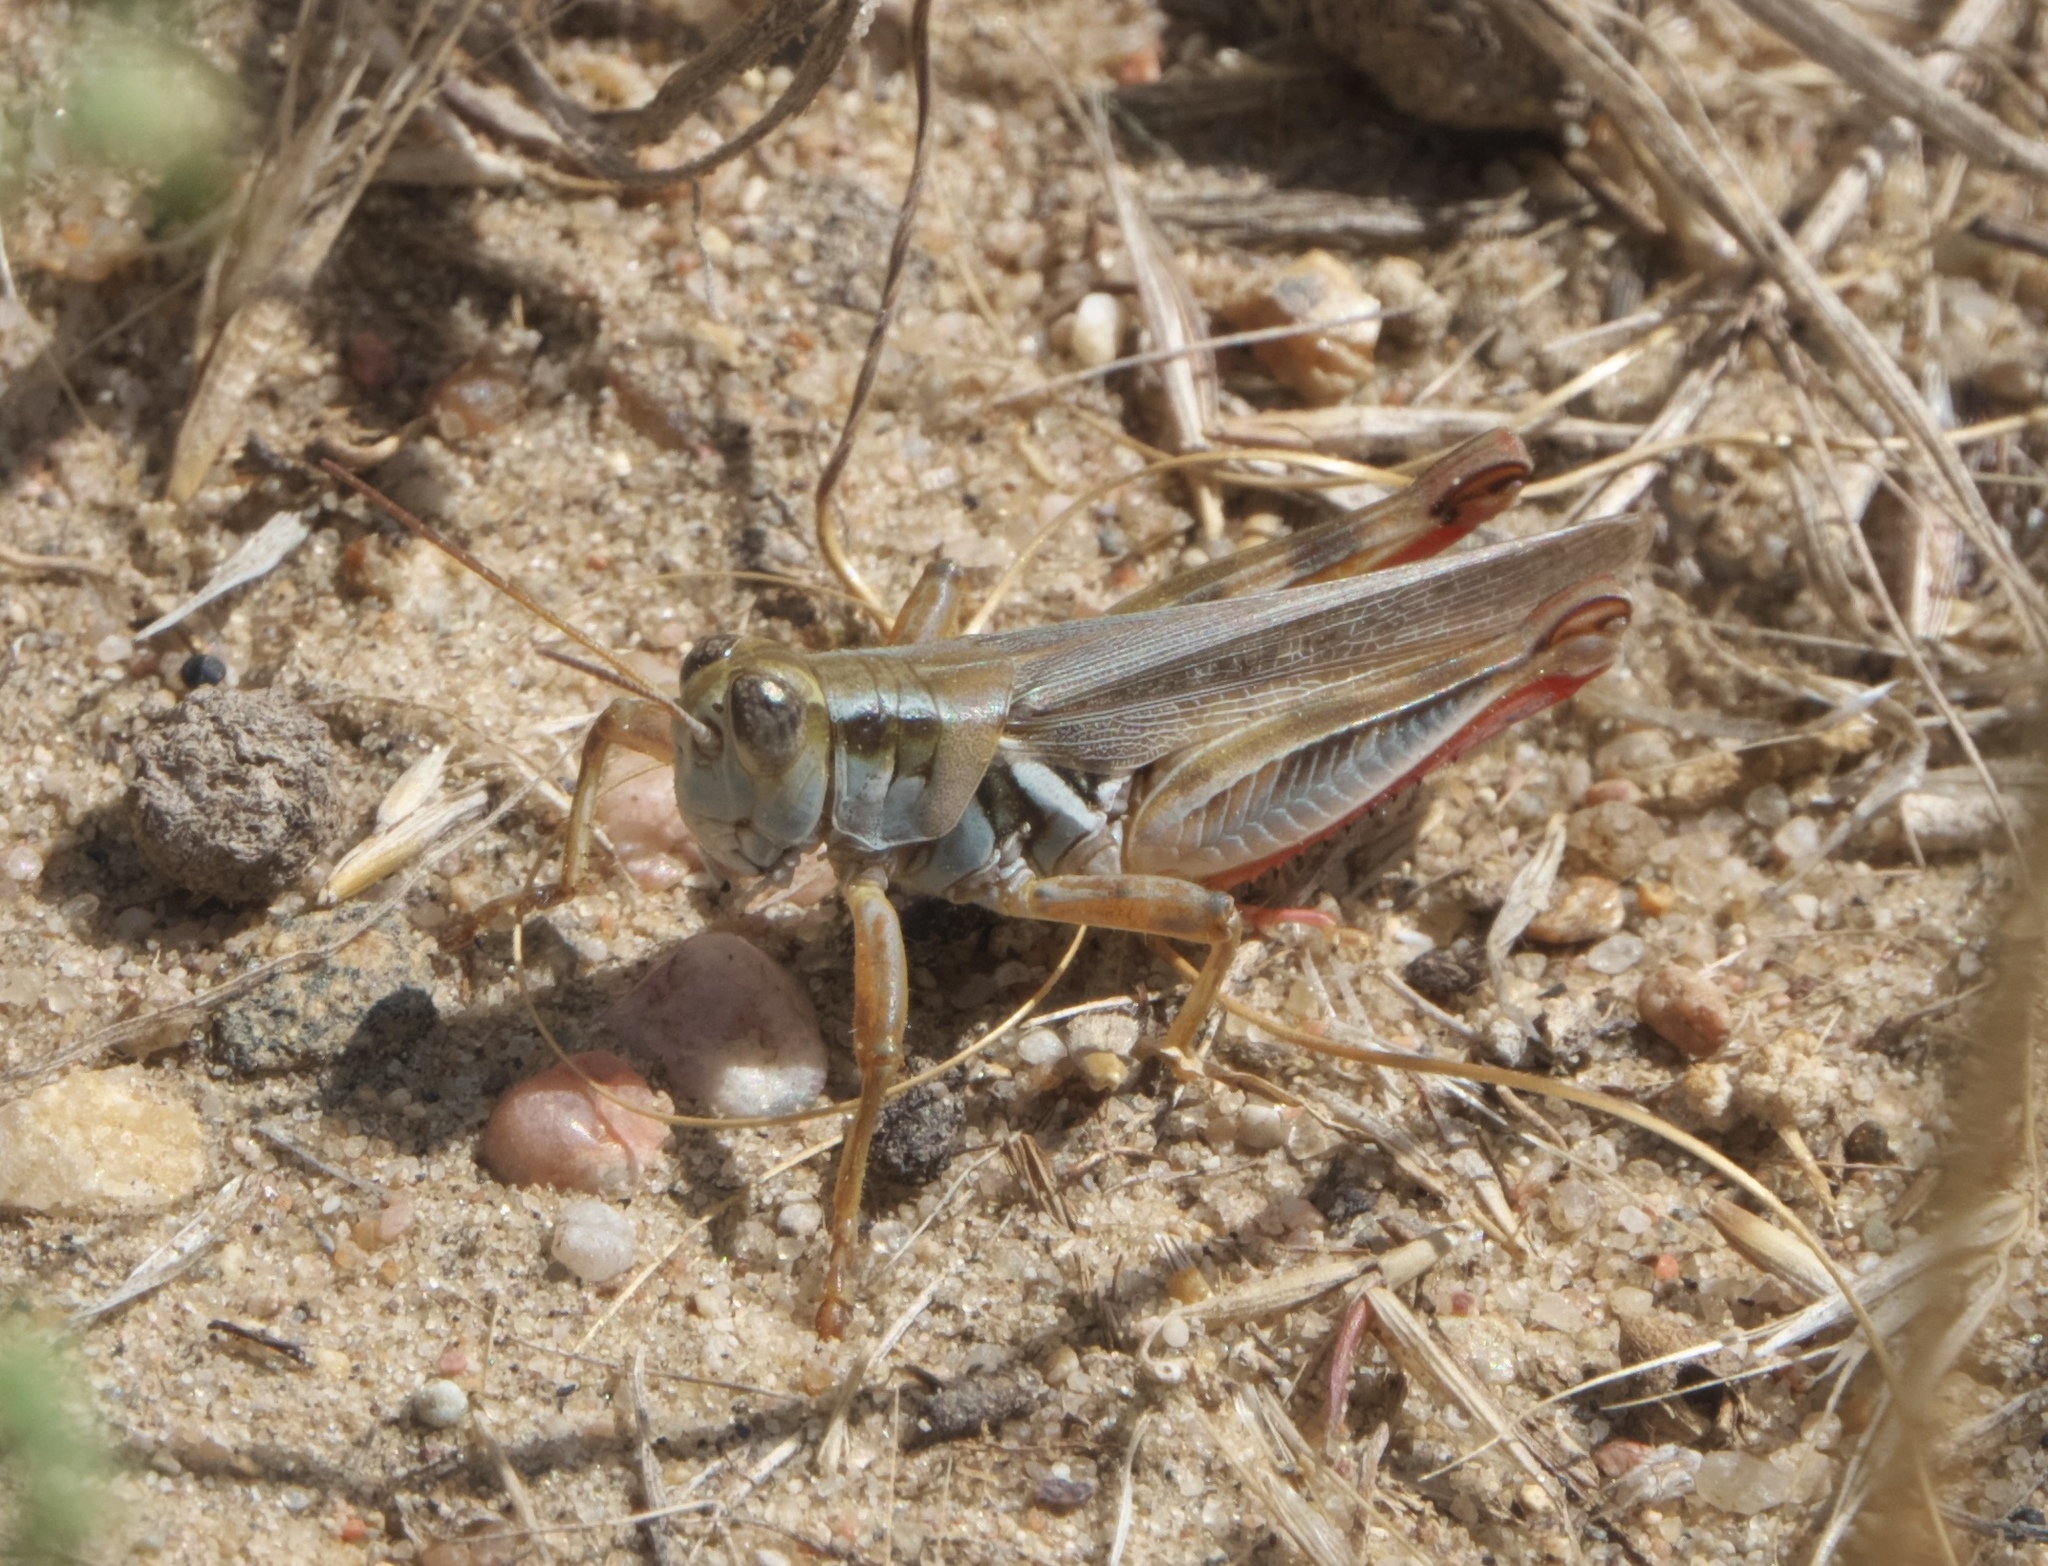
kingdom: Animalia
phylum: Arthropoda
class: Insecta
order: Orthoptera
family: Acrididae
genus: Melanoplus
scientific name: Melanoplus angustipennis
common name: Narrow-winged locust
